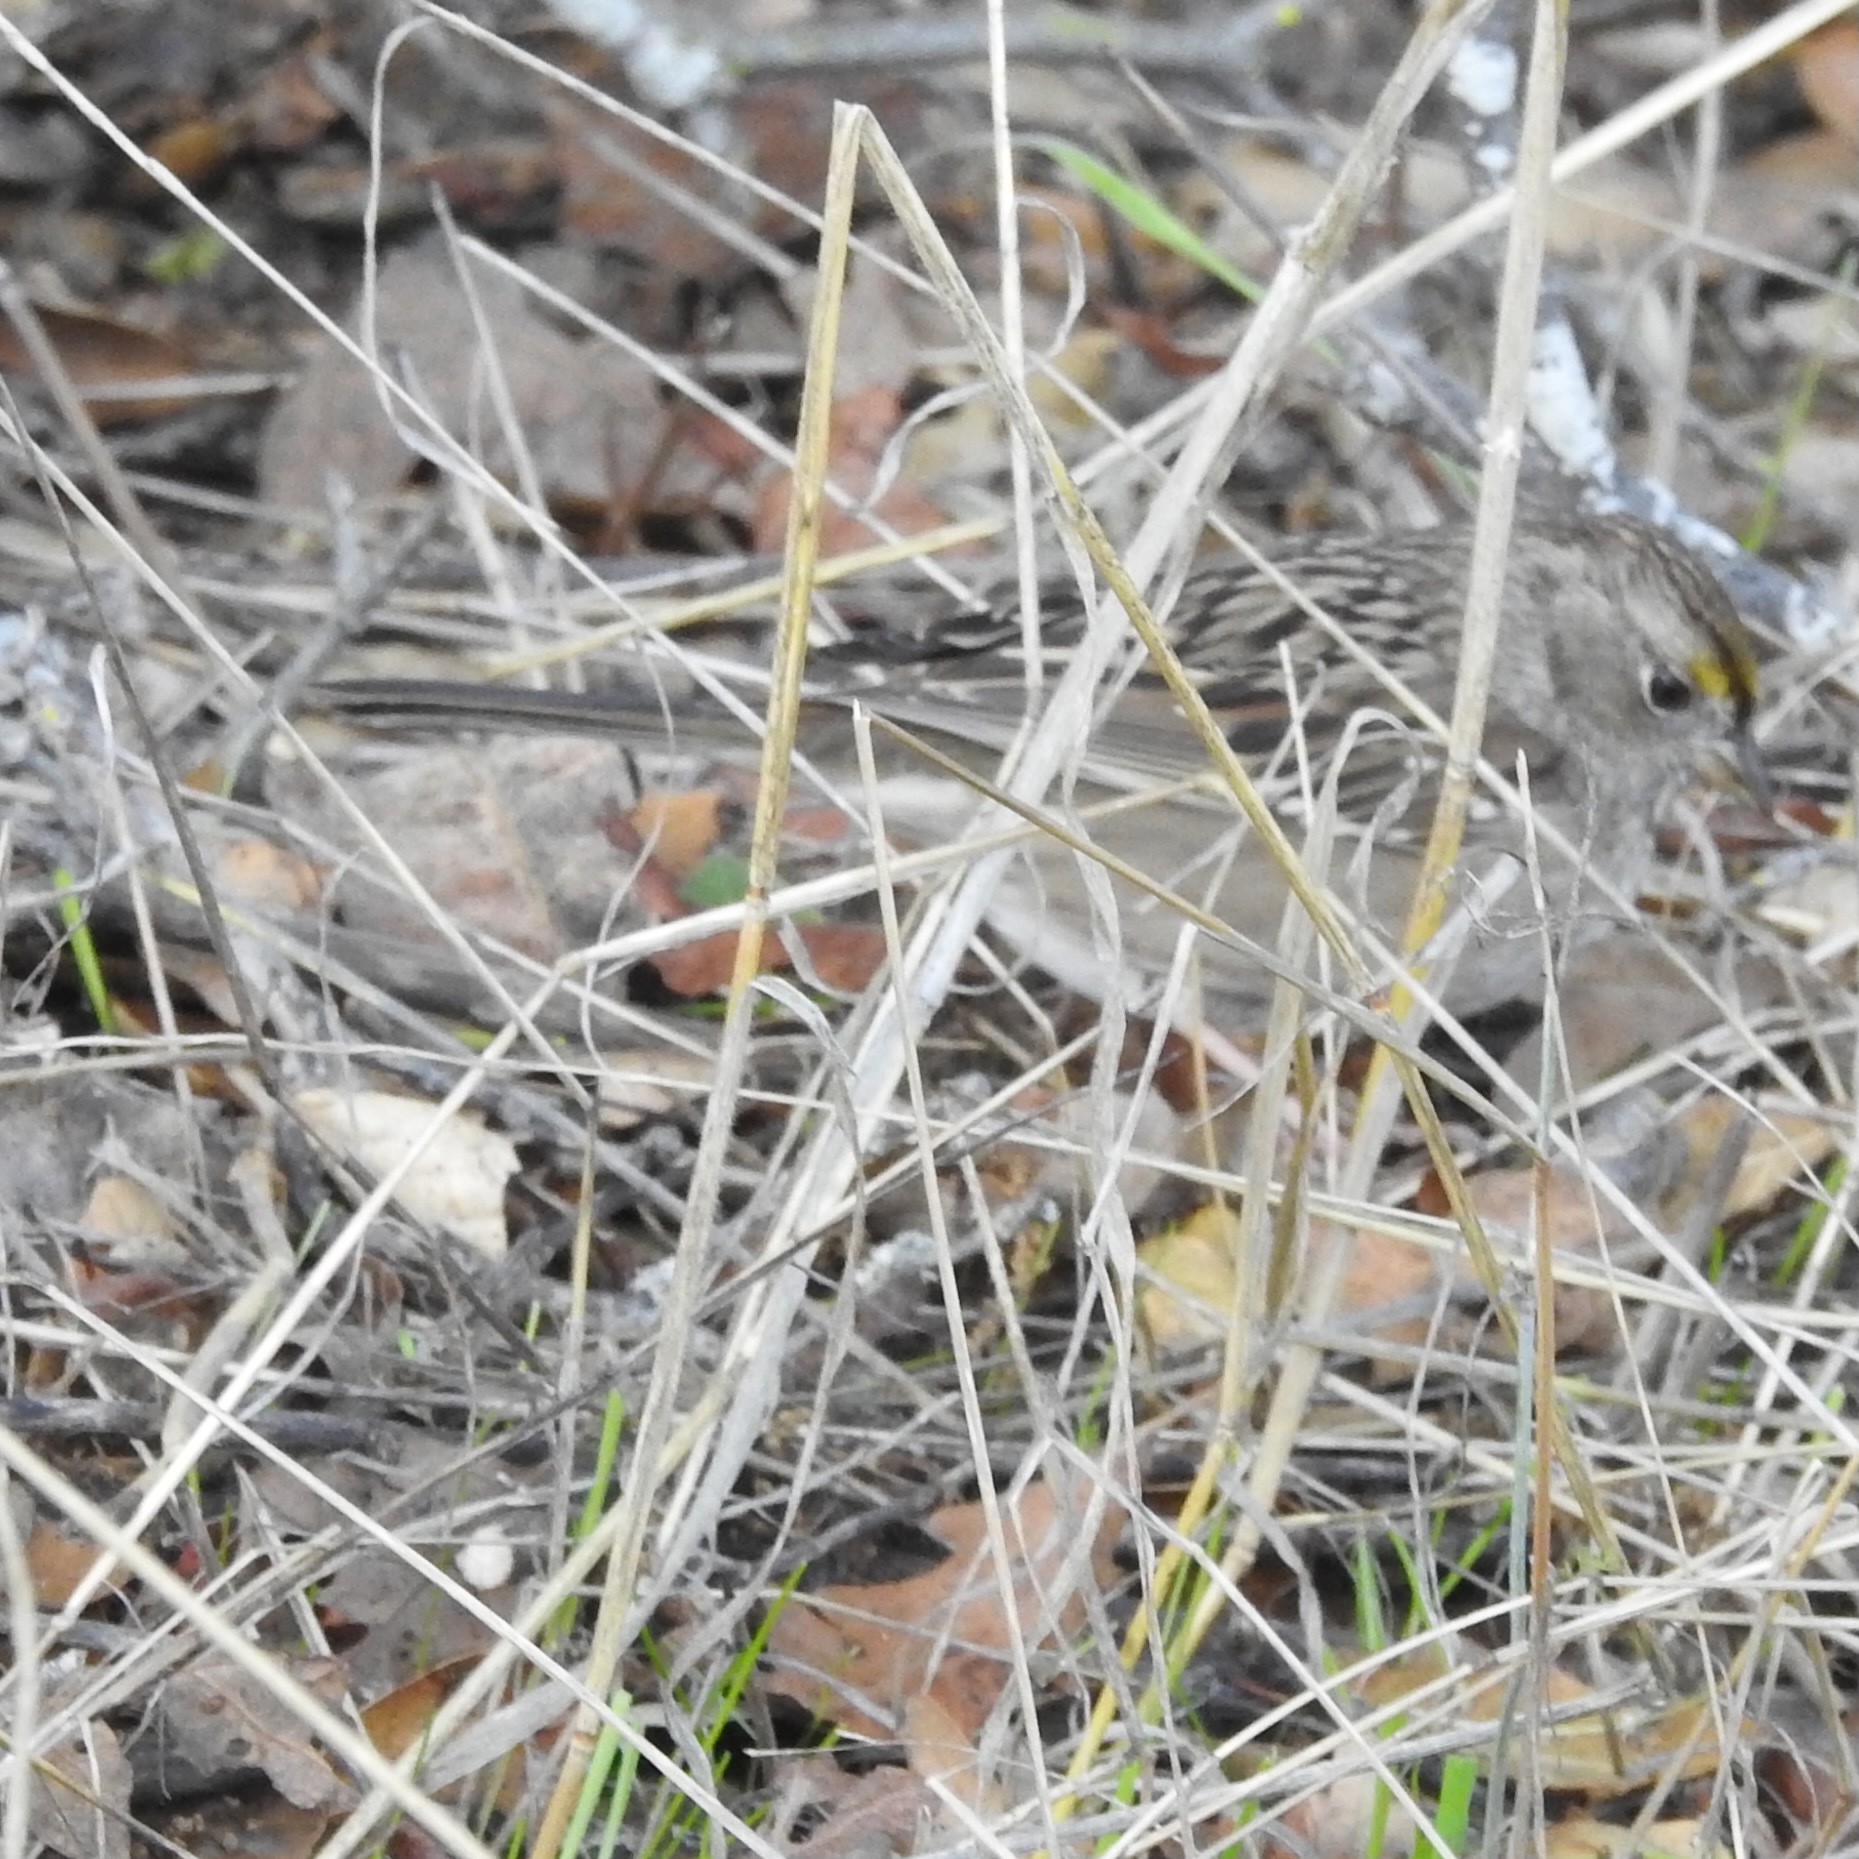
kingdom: Animalia
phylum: Chordata
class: Aves
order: Passeriformes
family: Passerellidae
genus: Zonotrichia
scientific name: Zonotrichia atricapilla
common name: Golden-crowned sparrow
